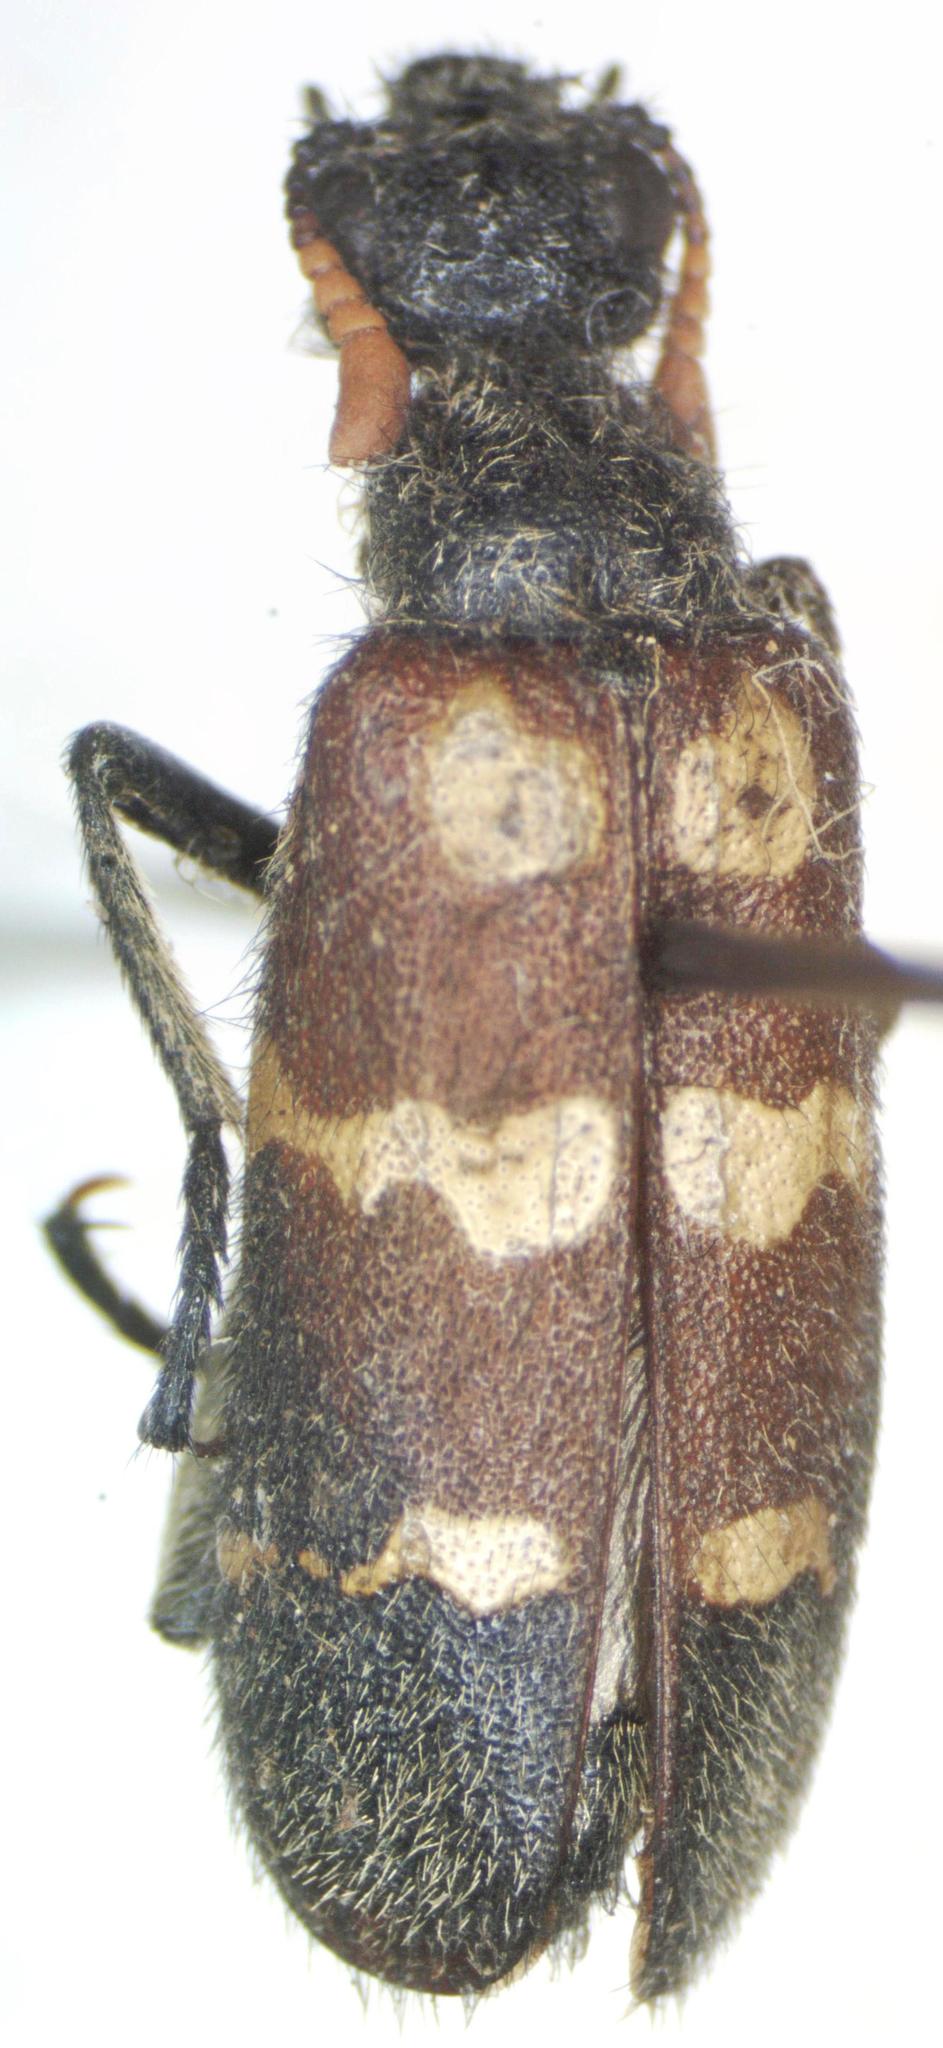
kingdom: Animalia
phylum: Arthropoda
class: Insecta
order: Coleoptera
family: Meloidae
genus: Hycleus
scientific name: Hycleus apicicornis
